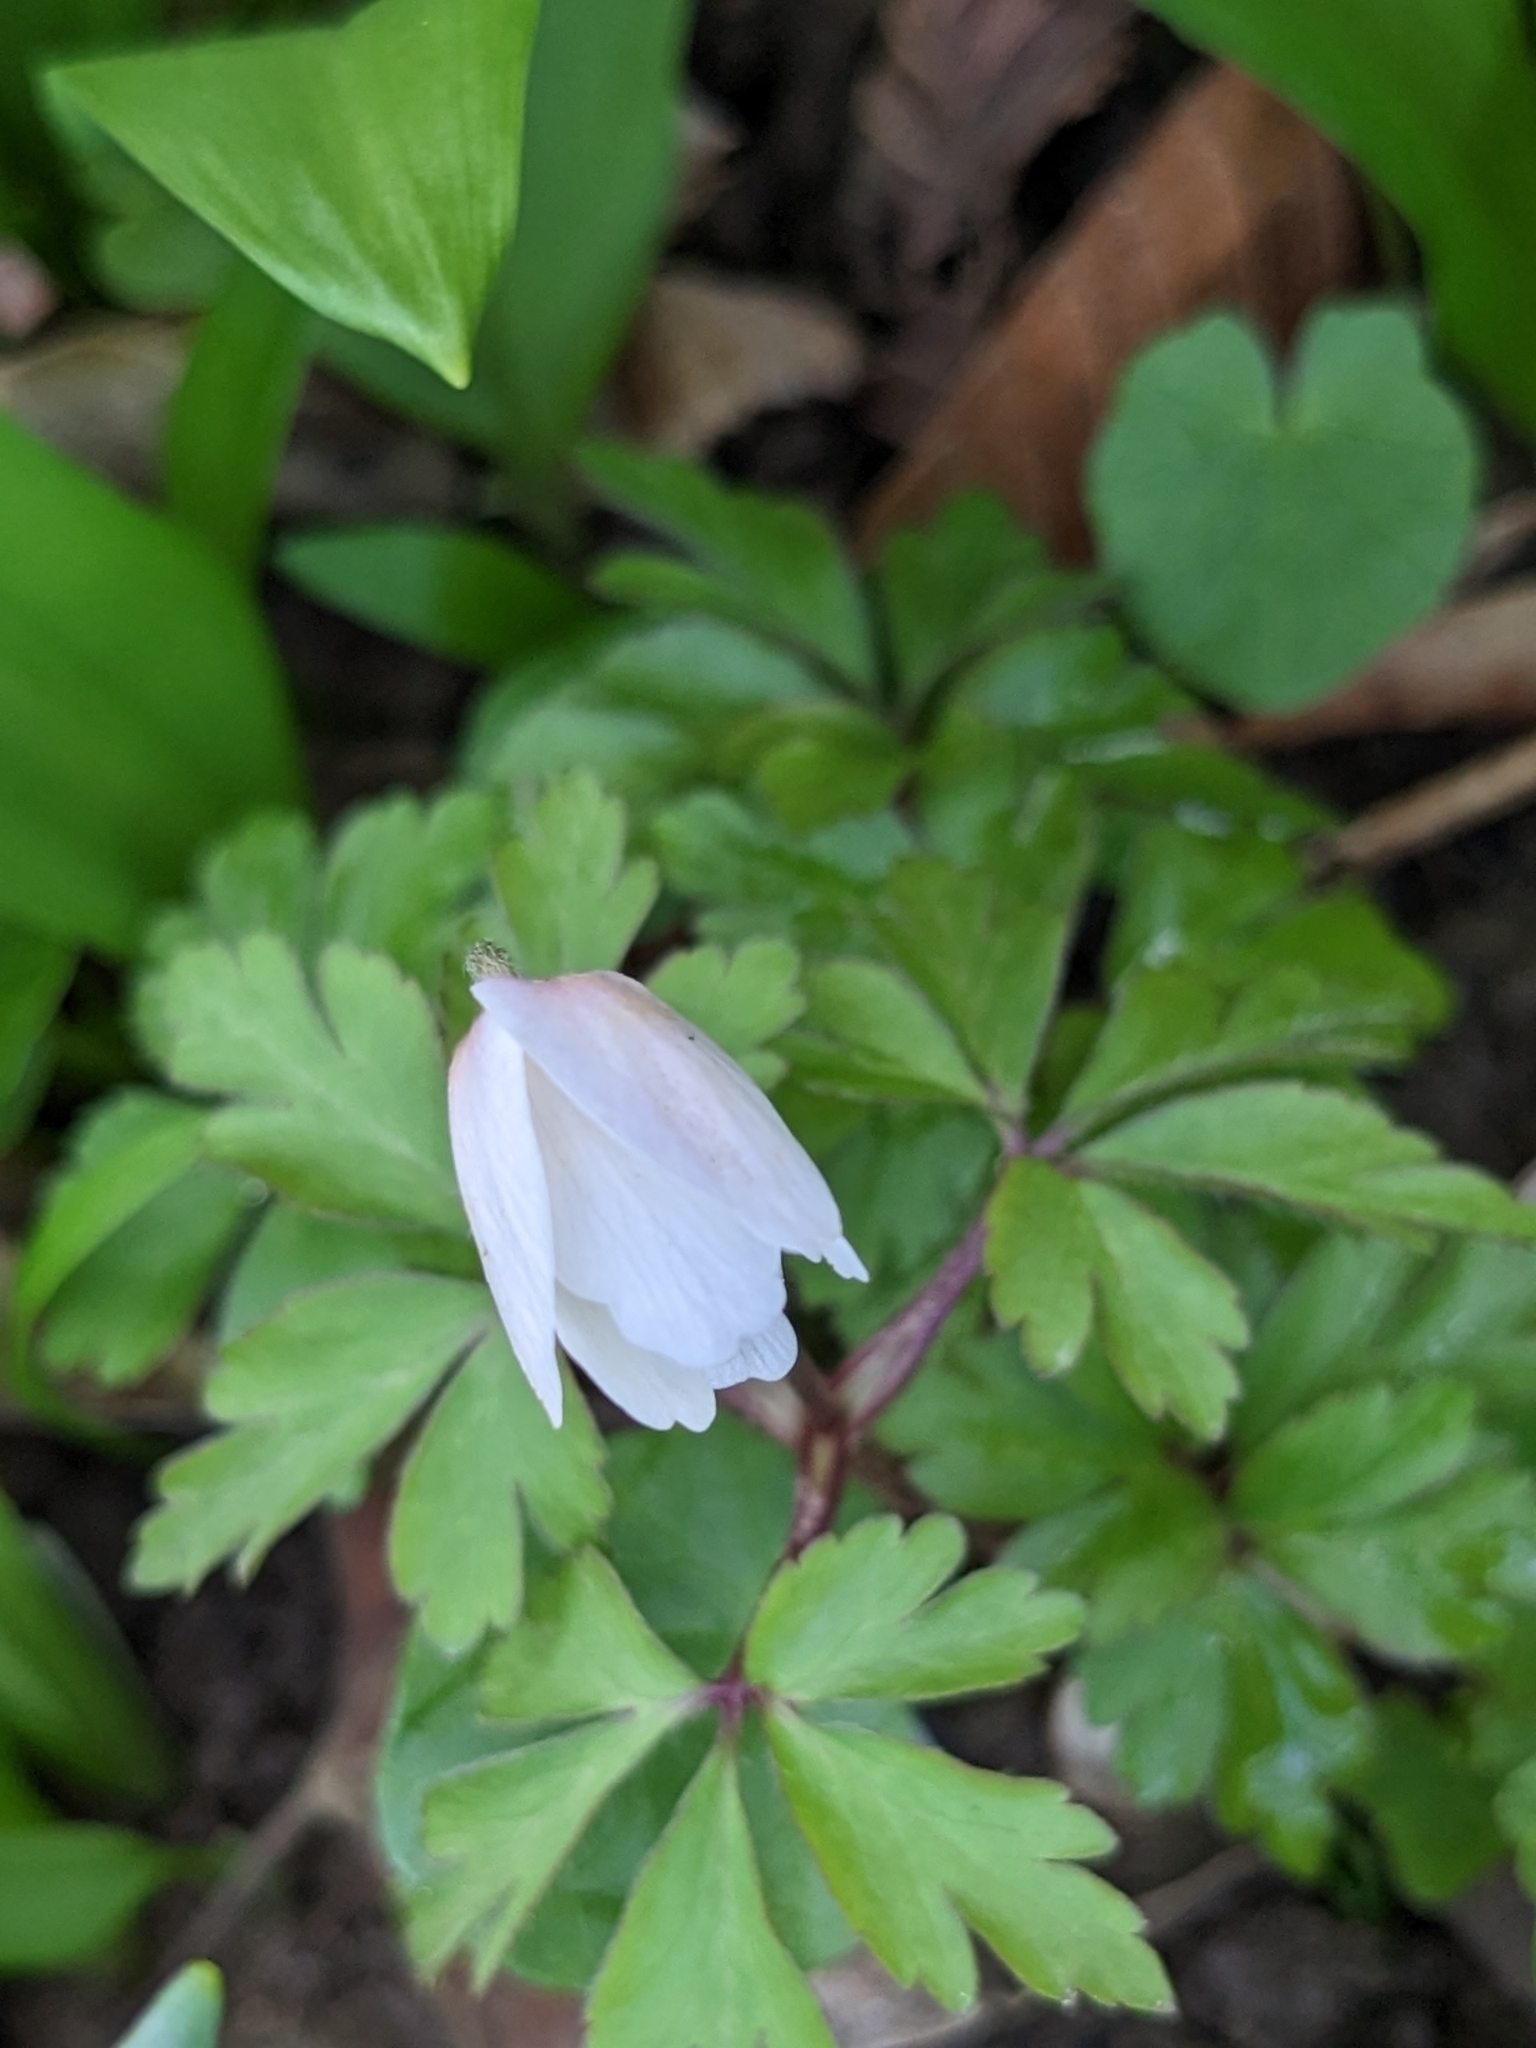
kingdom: Plantae
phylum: Tracheophyta
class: Magnoliopsida
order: Ranunculales
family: Ranunculaceae
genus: Anemone
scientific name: Anemone nemorosa
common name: Wood anemone
